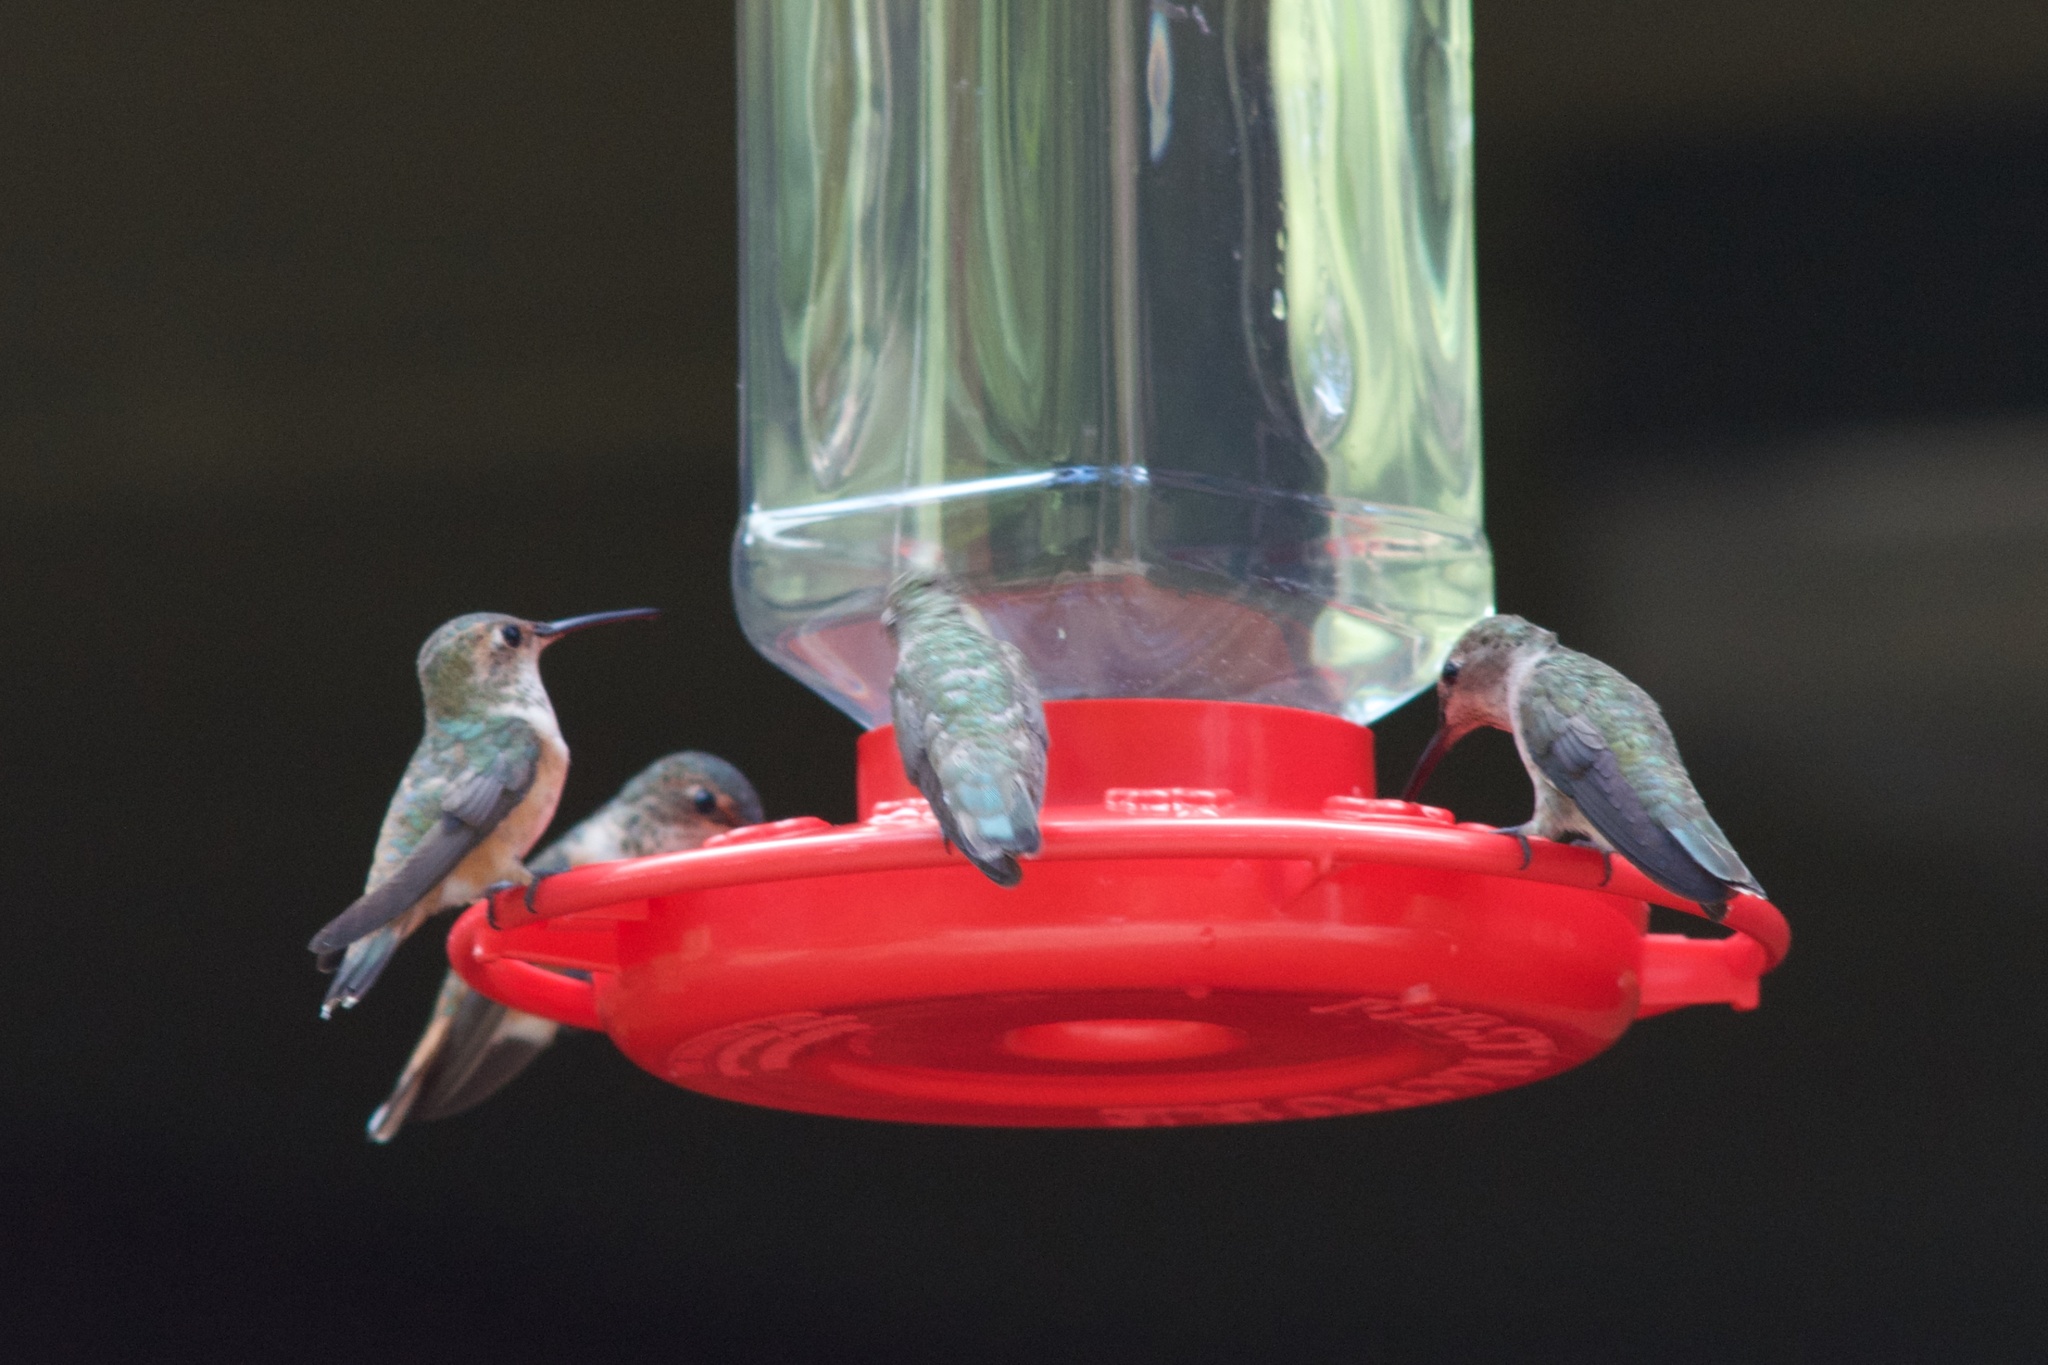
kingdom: Animalia
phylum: Chordata
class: Aves
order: Apodiformes
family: Trochilidae
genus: Selasphorus
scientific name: Selasphorus sasin
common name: Allen's hummingbird
